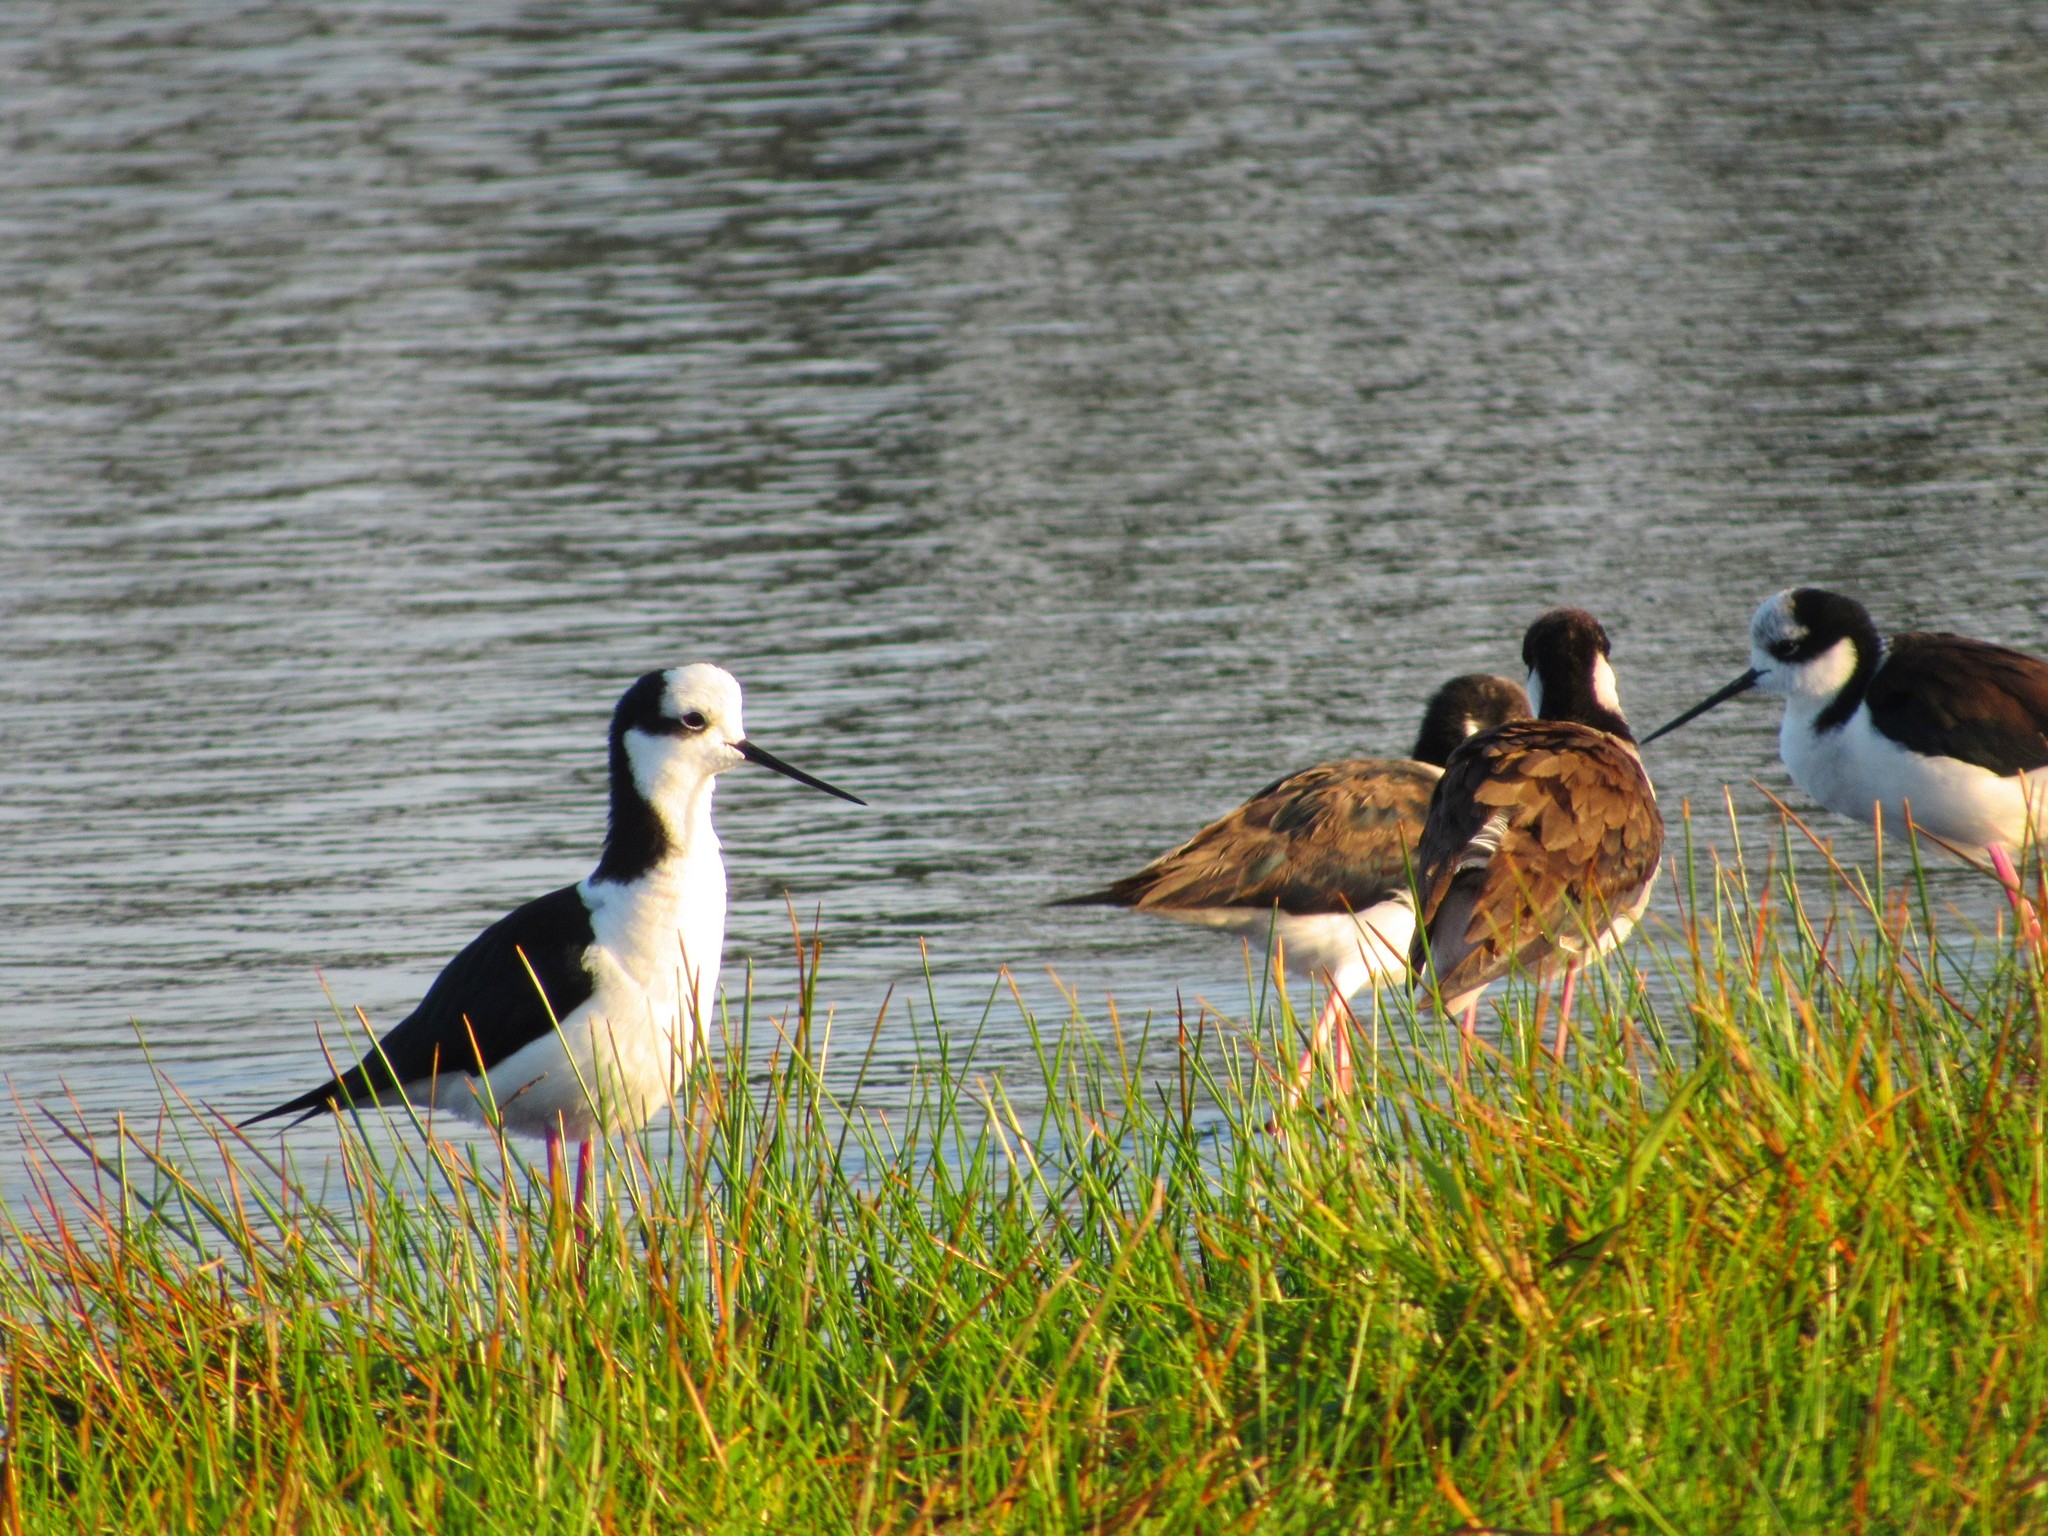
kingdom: Animalia
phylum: Chordata
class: Aves
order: Charadriiformes
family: Recurvirostridae
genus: Himantopus
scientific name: Himantopus mexicanus
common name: Black-necked stilt
